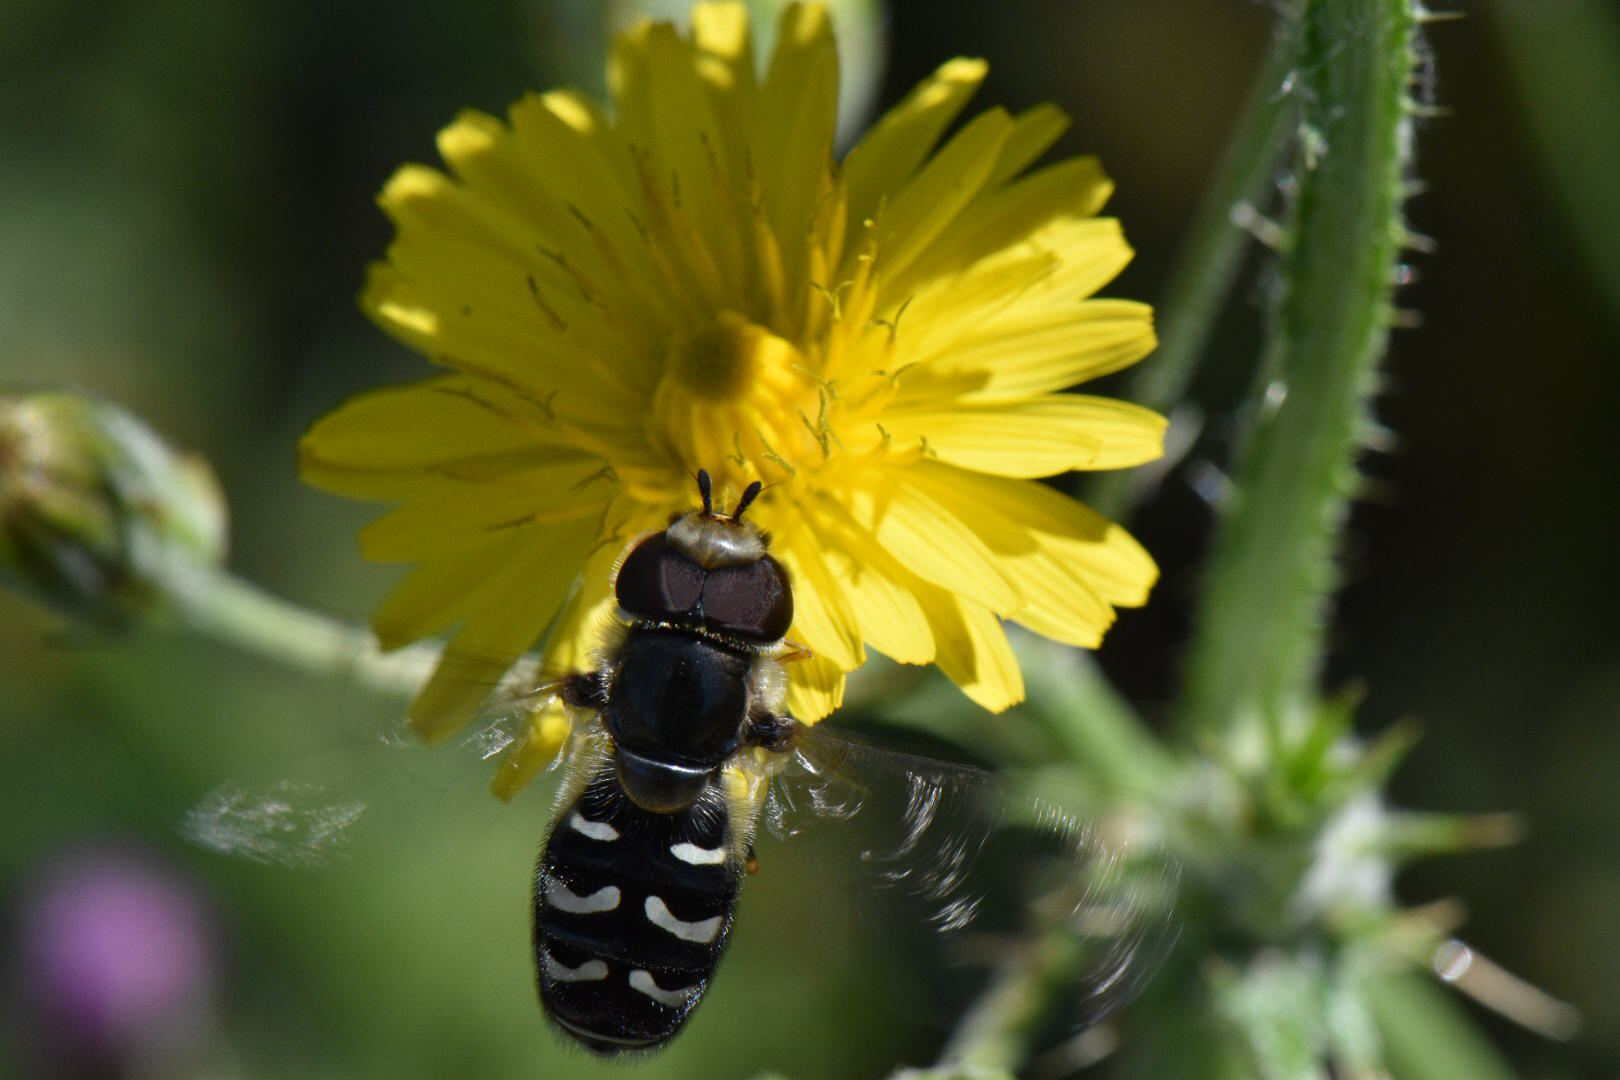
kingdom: Animalia
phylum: Arthropoda
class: Insecta
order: Diptera
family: Syrphidae
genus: Scaeva
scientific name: Scaeva affinis
